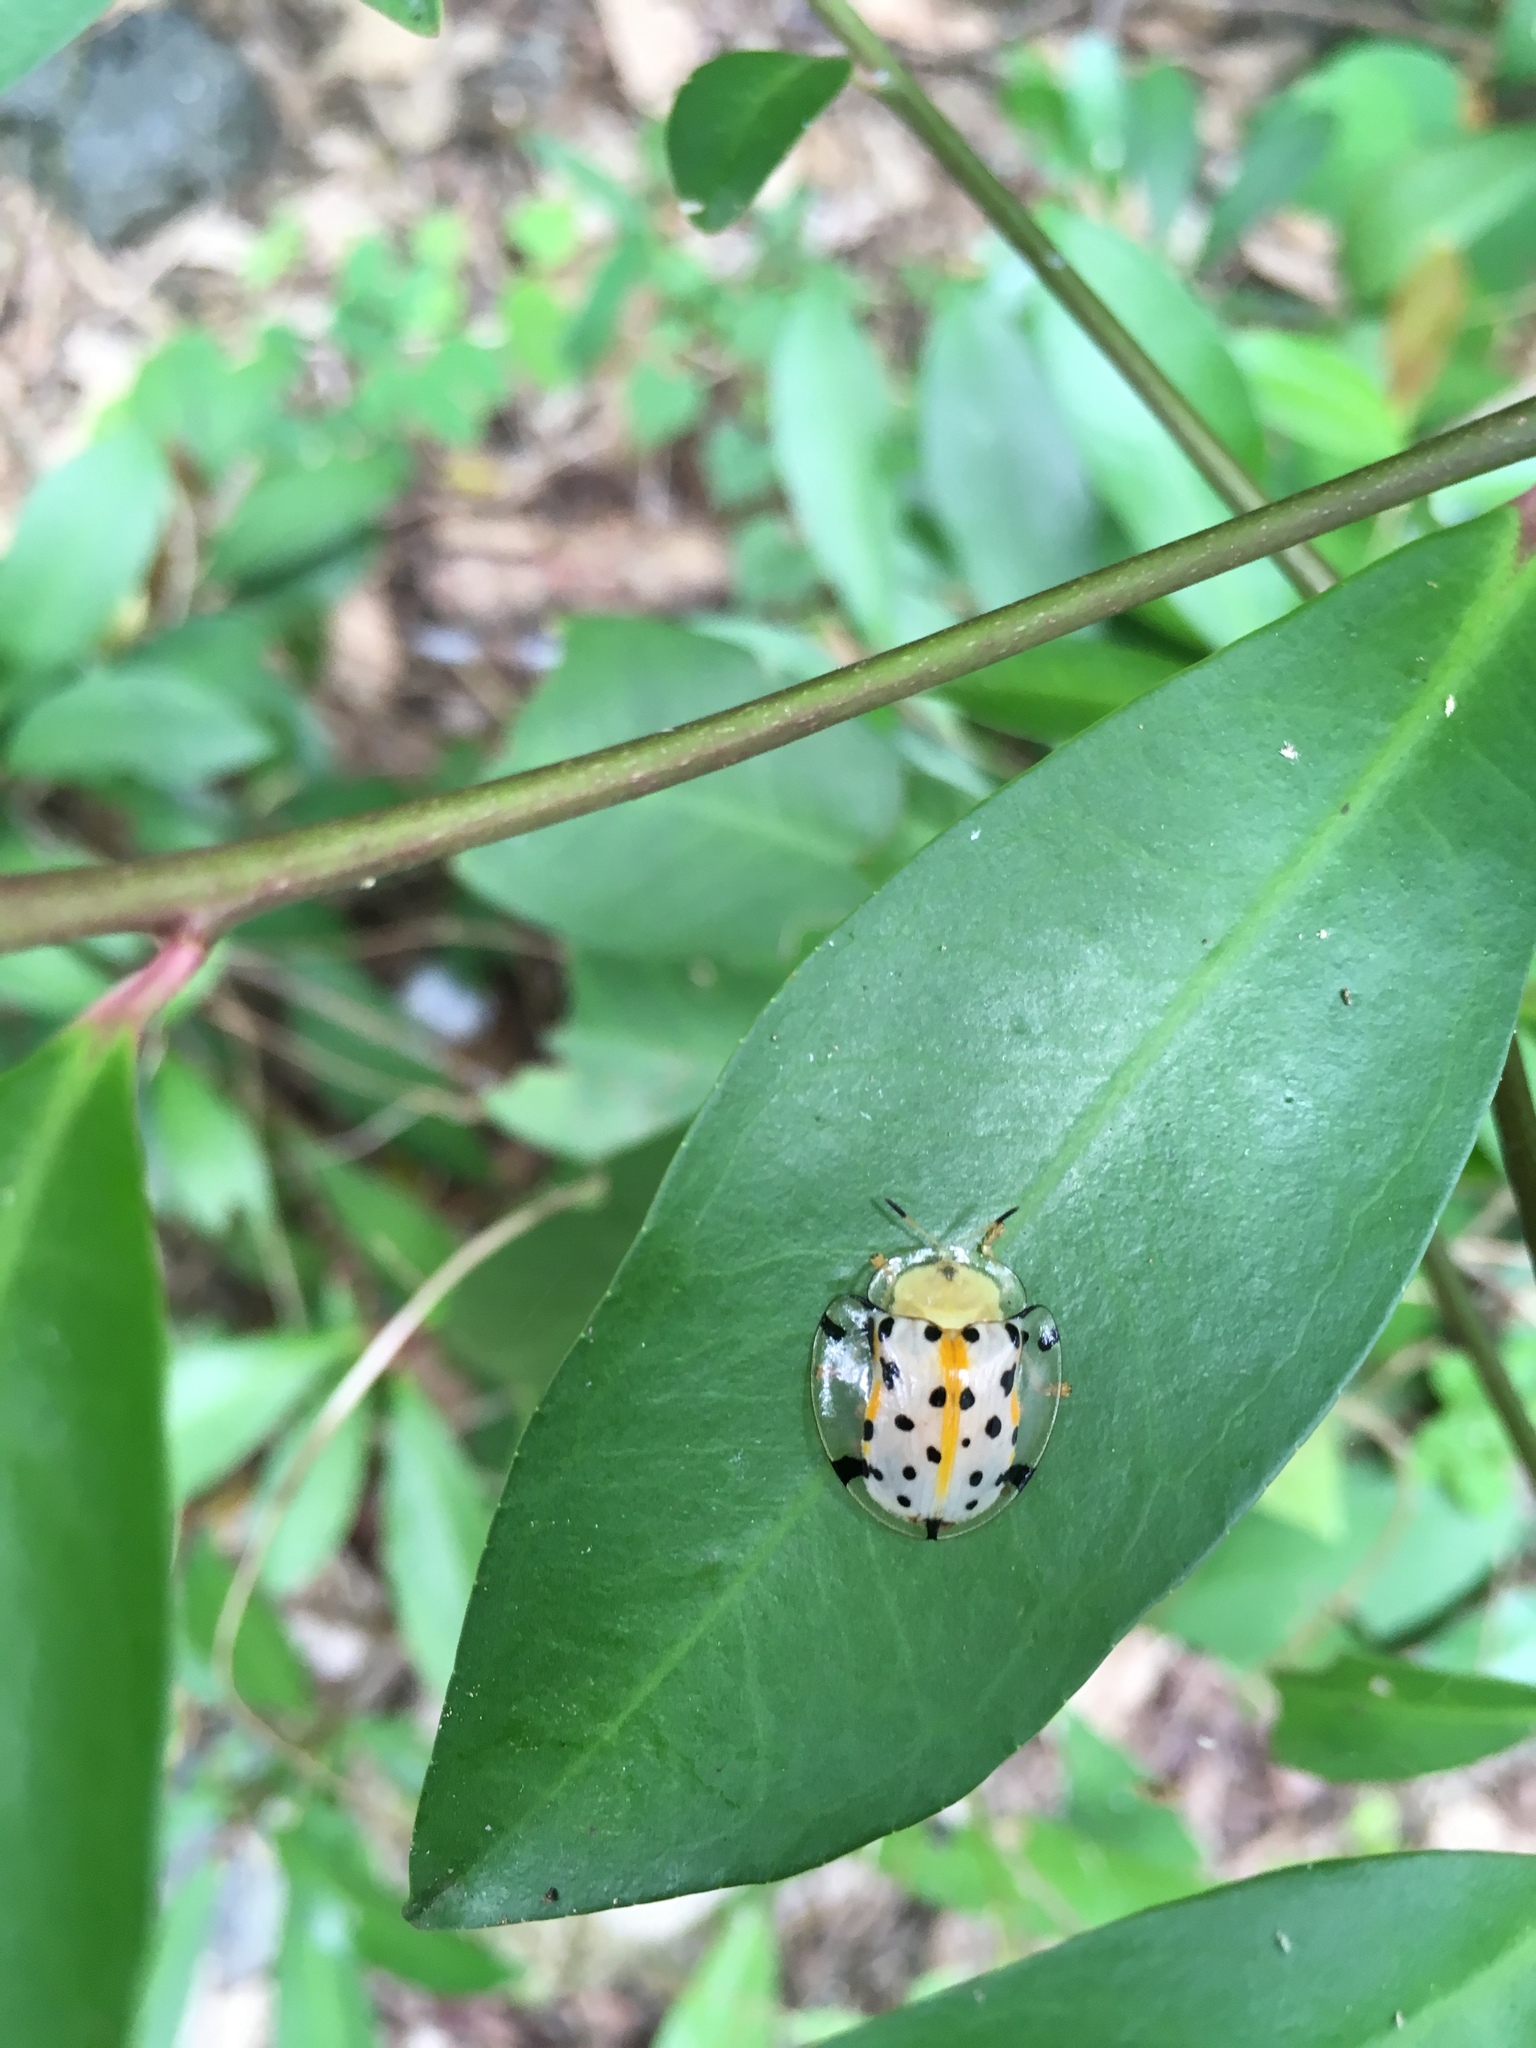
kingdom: Animalia
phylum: Arthropoda
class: Insecta
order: Coleoptera
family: Chrysomelidae
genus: Aspidimorpha
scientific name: Aspidimorpha miliaris
